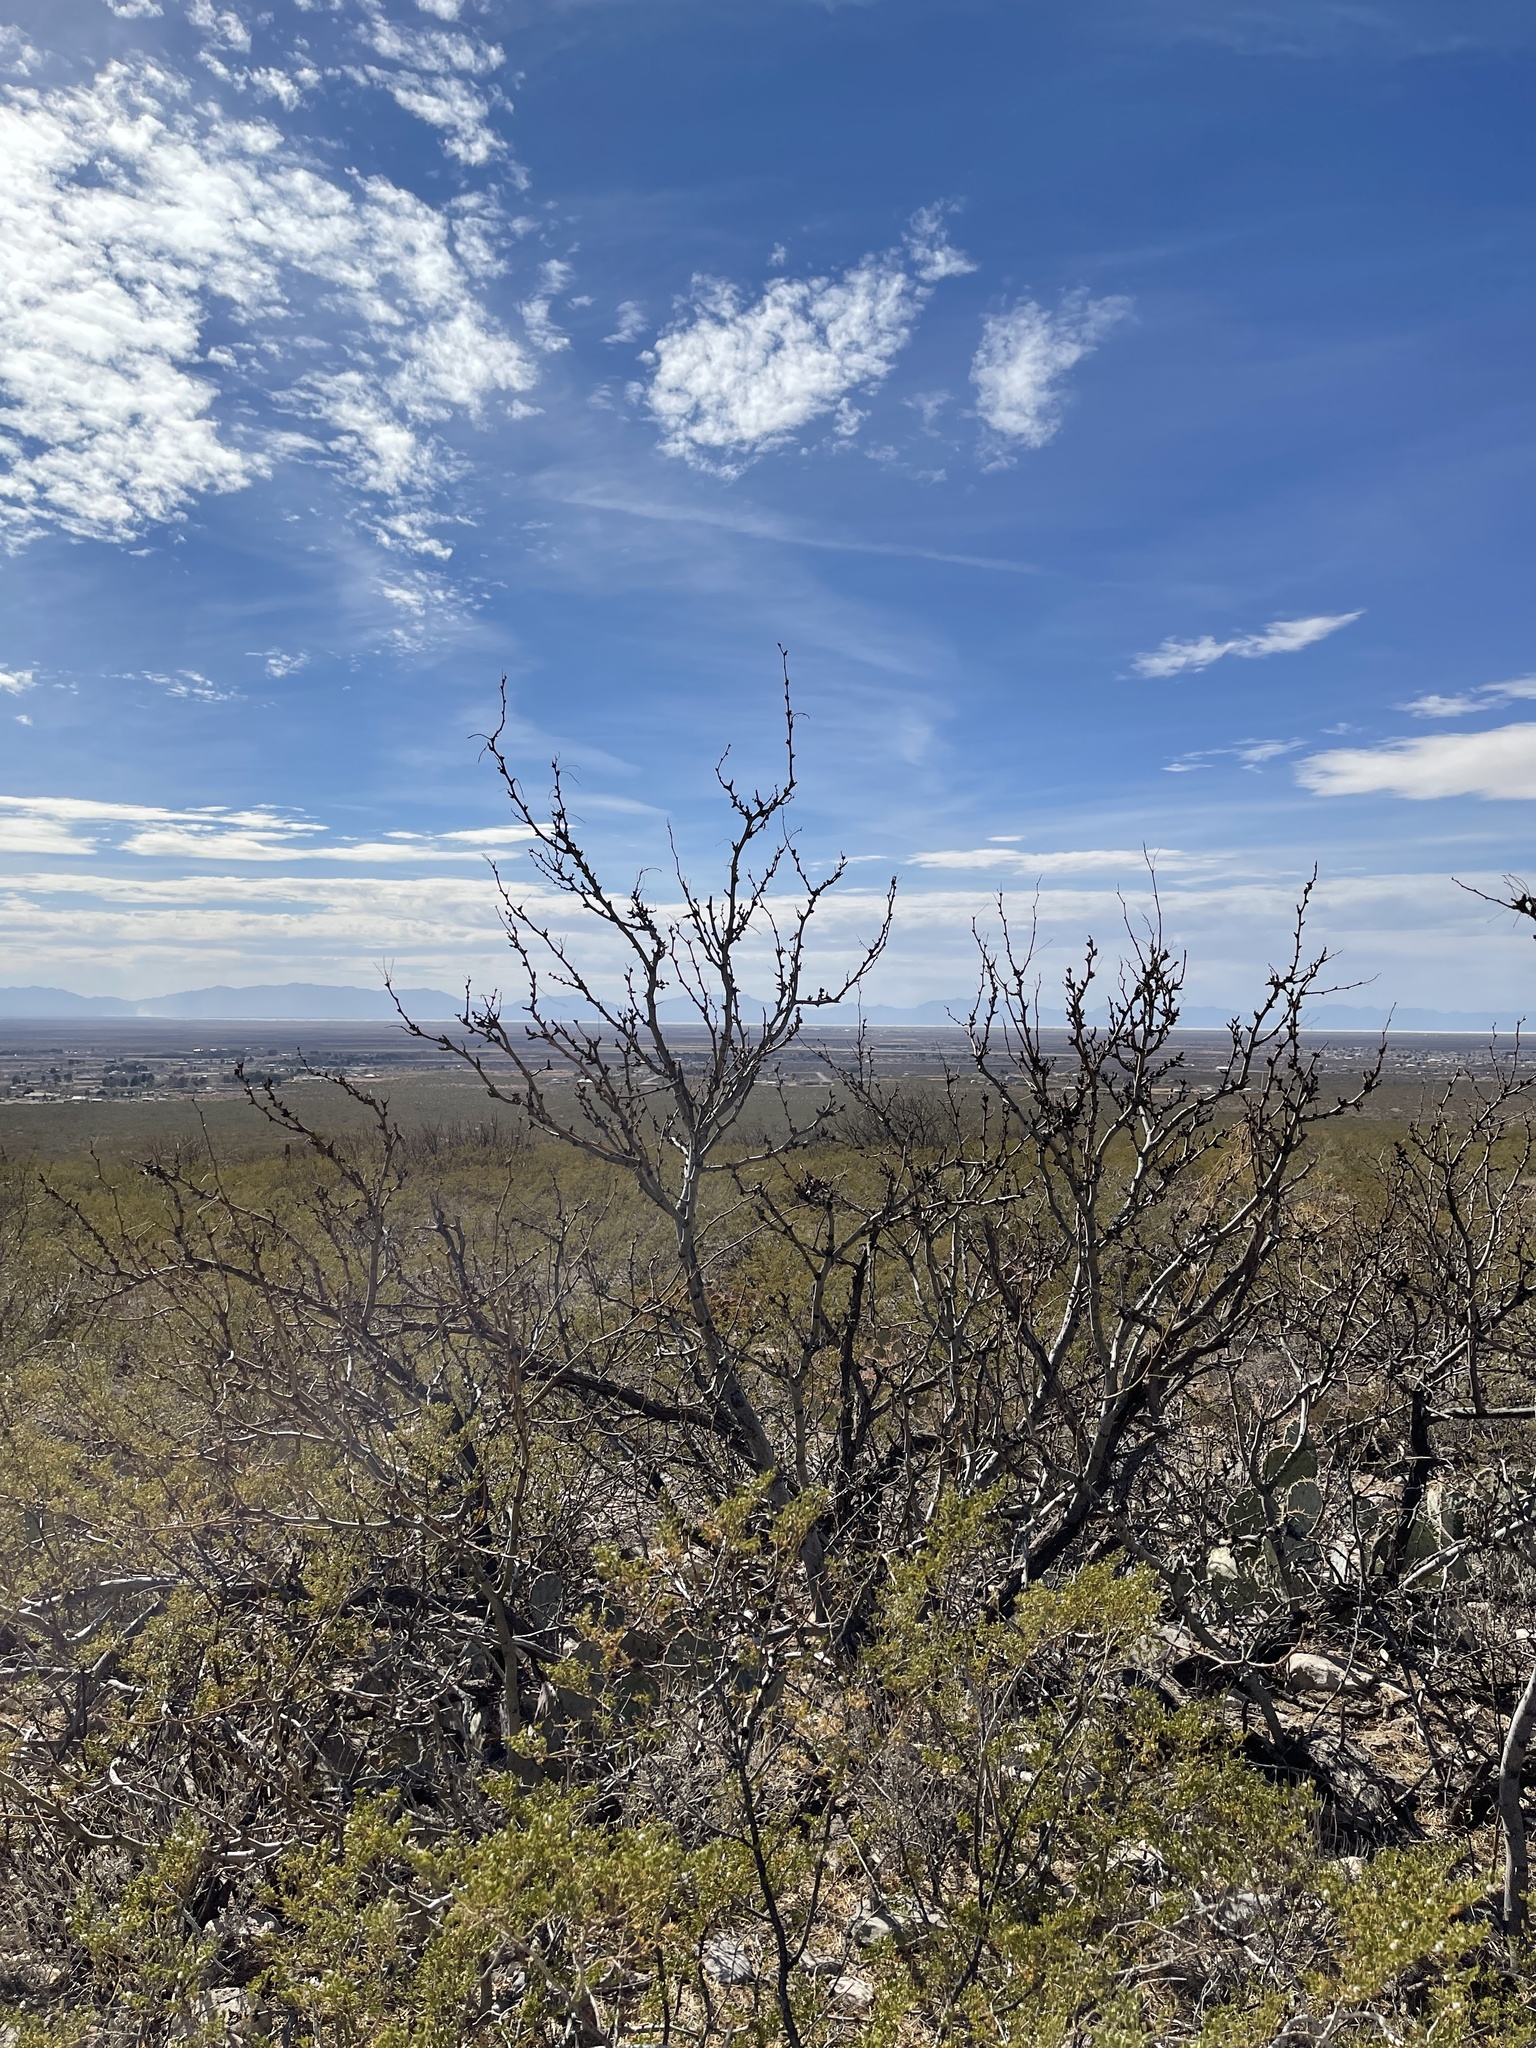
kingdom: Plantae
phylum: Tracheophyta
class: Magnoliopsida
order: Fabales
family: Fabaceae
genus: Prosopis
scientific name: Prosopis glandulosa
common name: Honey mesquite
